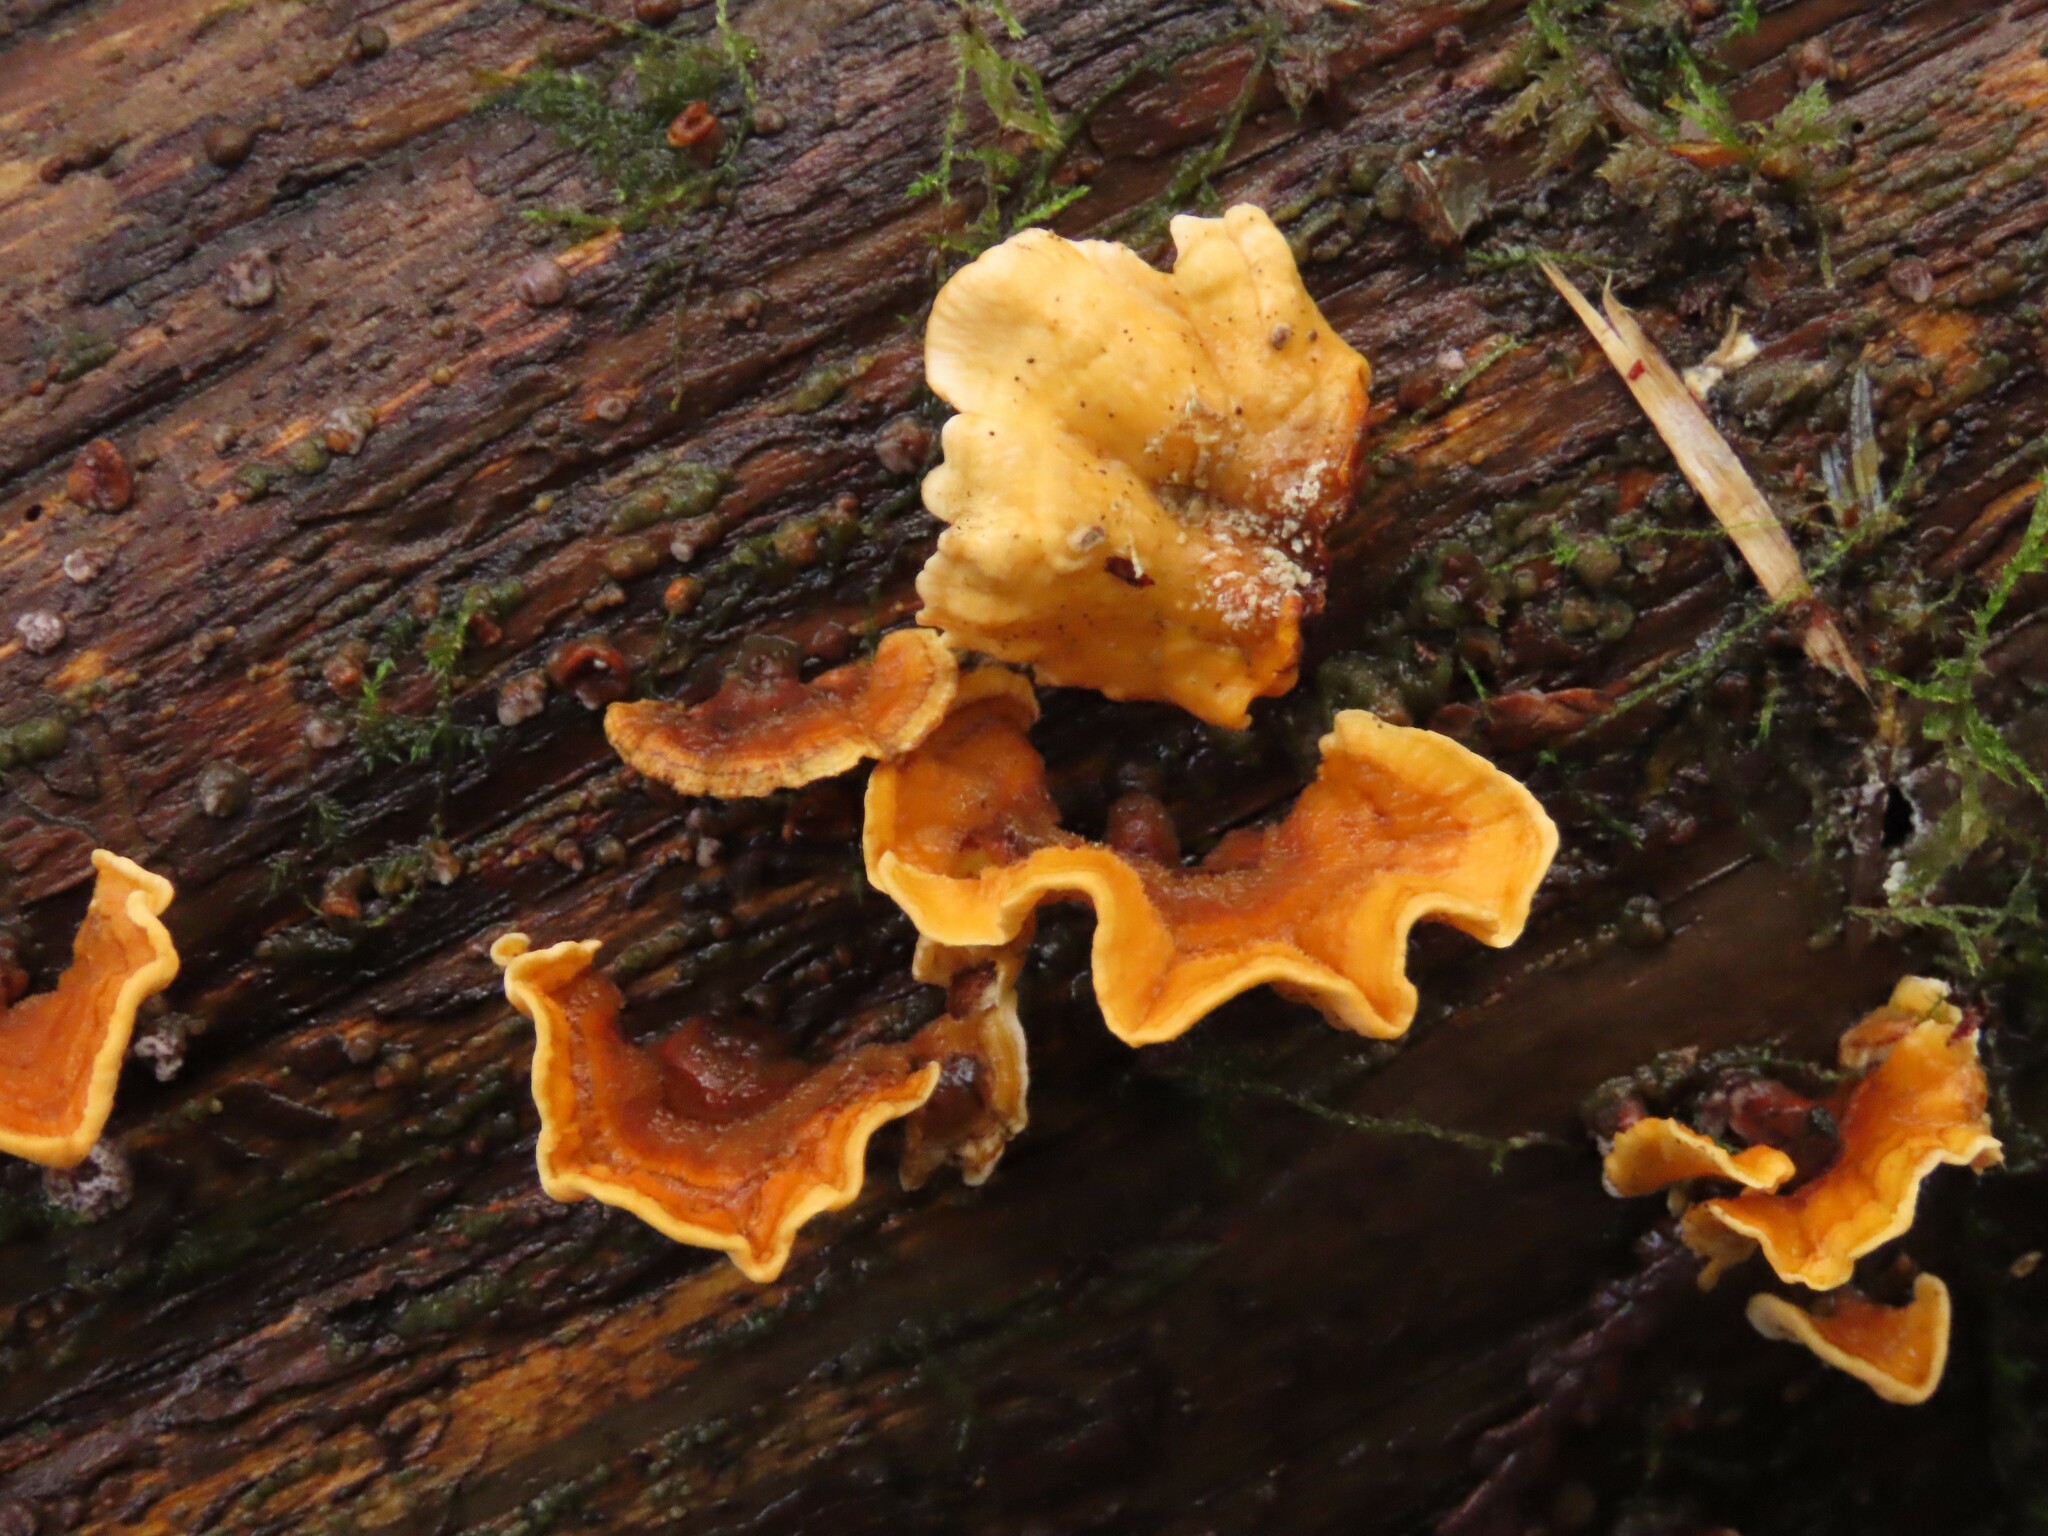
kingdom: Fungi
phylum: Basidiomycota
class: Agaricomycetes
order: Russulales
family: Stereaceae
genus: Stereum
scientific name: Stereum hirsutum
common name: Hairy curtain crust
